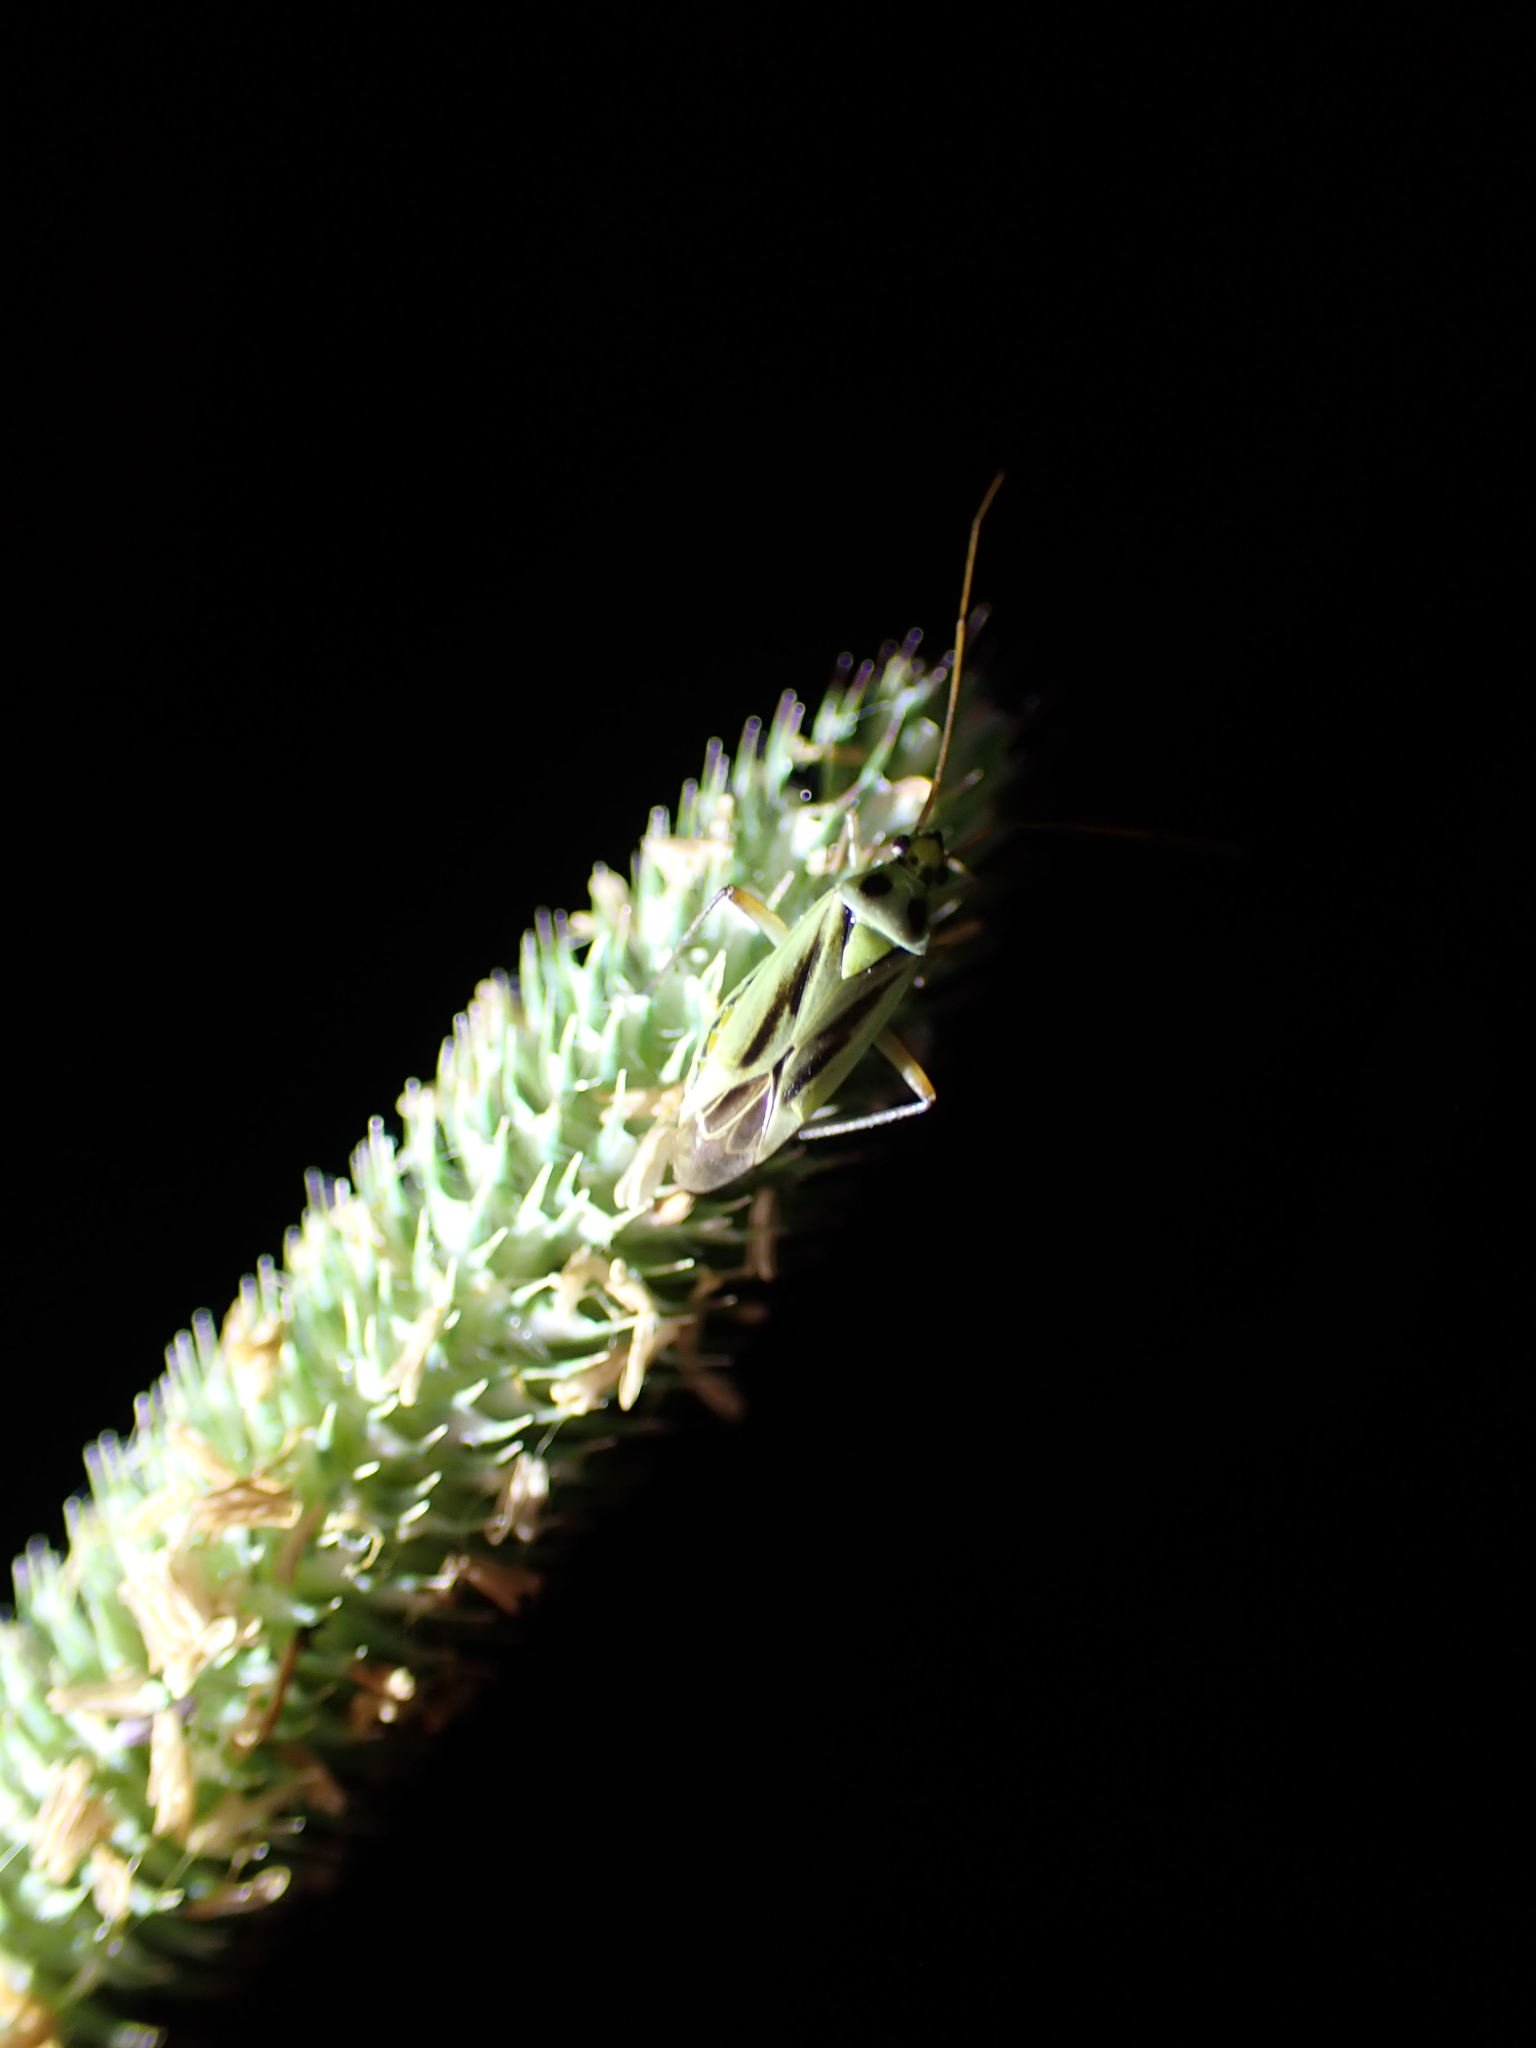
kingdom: Animalia
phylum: Arthropoda
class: Insecta
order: Hemiptera
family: Miridae
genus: Stenotus
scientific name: Stenotus binotatus
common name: Plant bug
